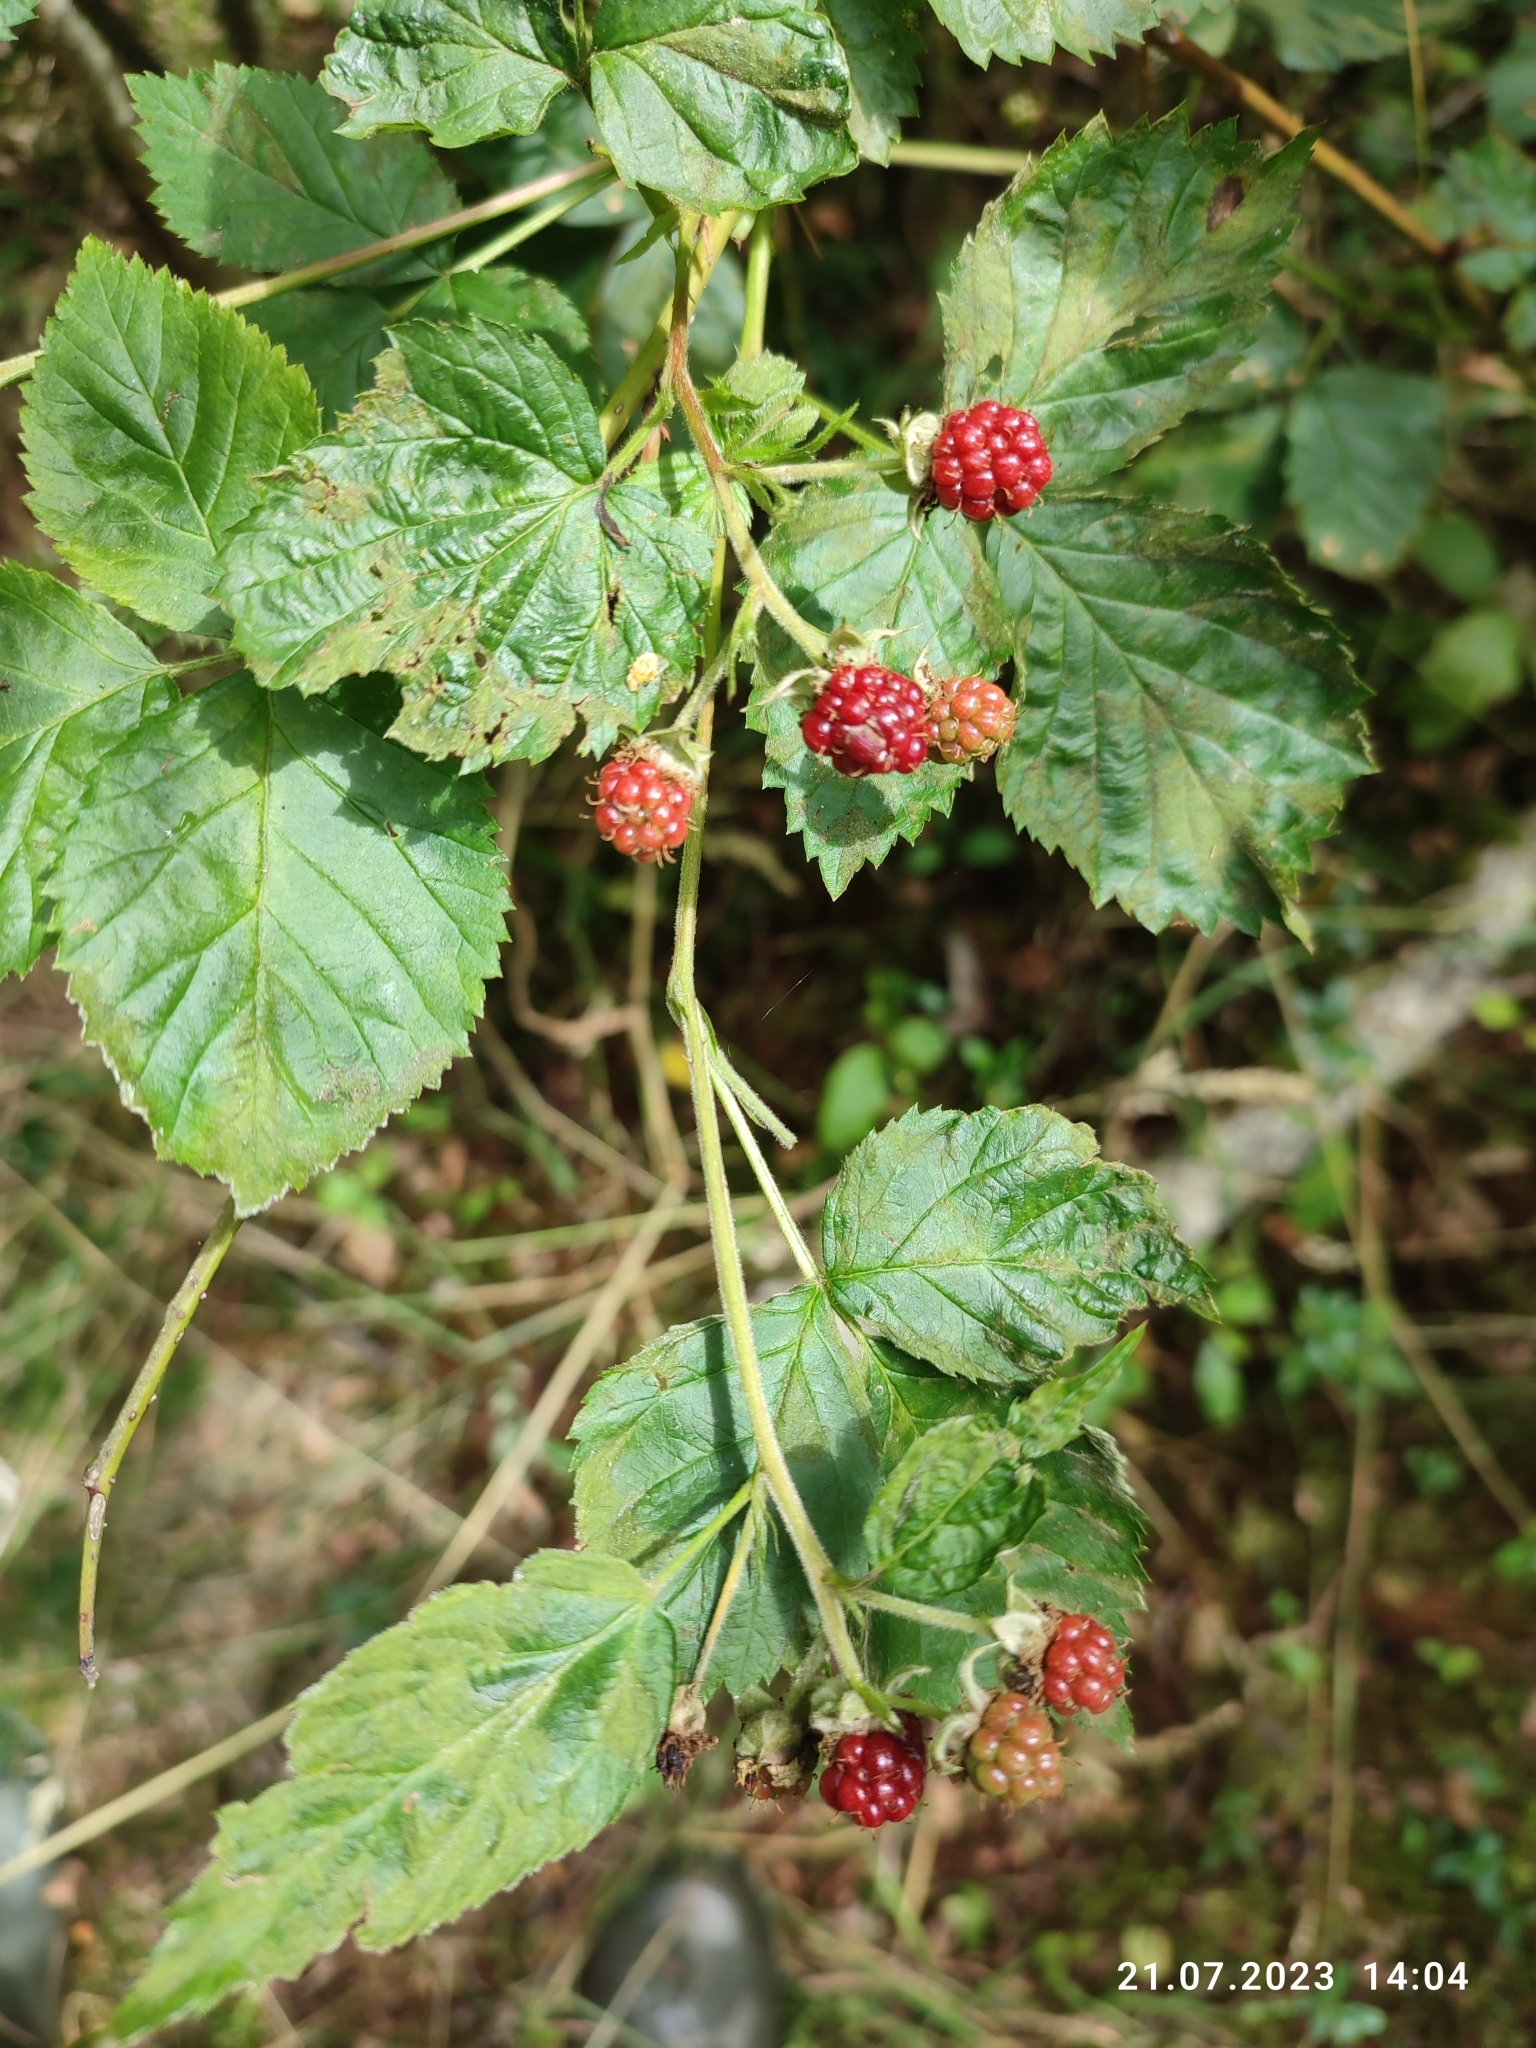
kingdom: Plantae
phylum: Tracheophyta
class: Magnoliopsida
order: Rosales
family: Rosaceae
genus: Rubus
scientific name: Rubus polonicus
